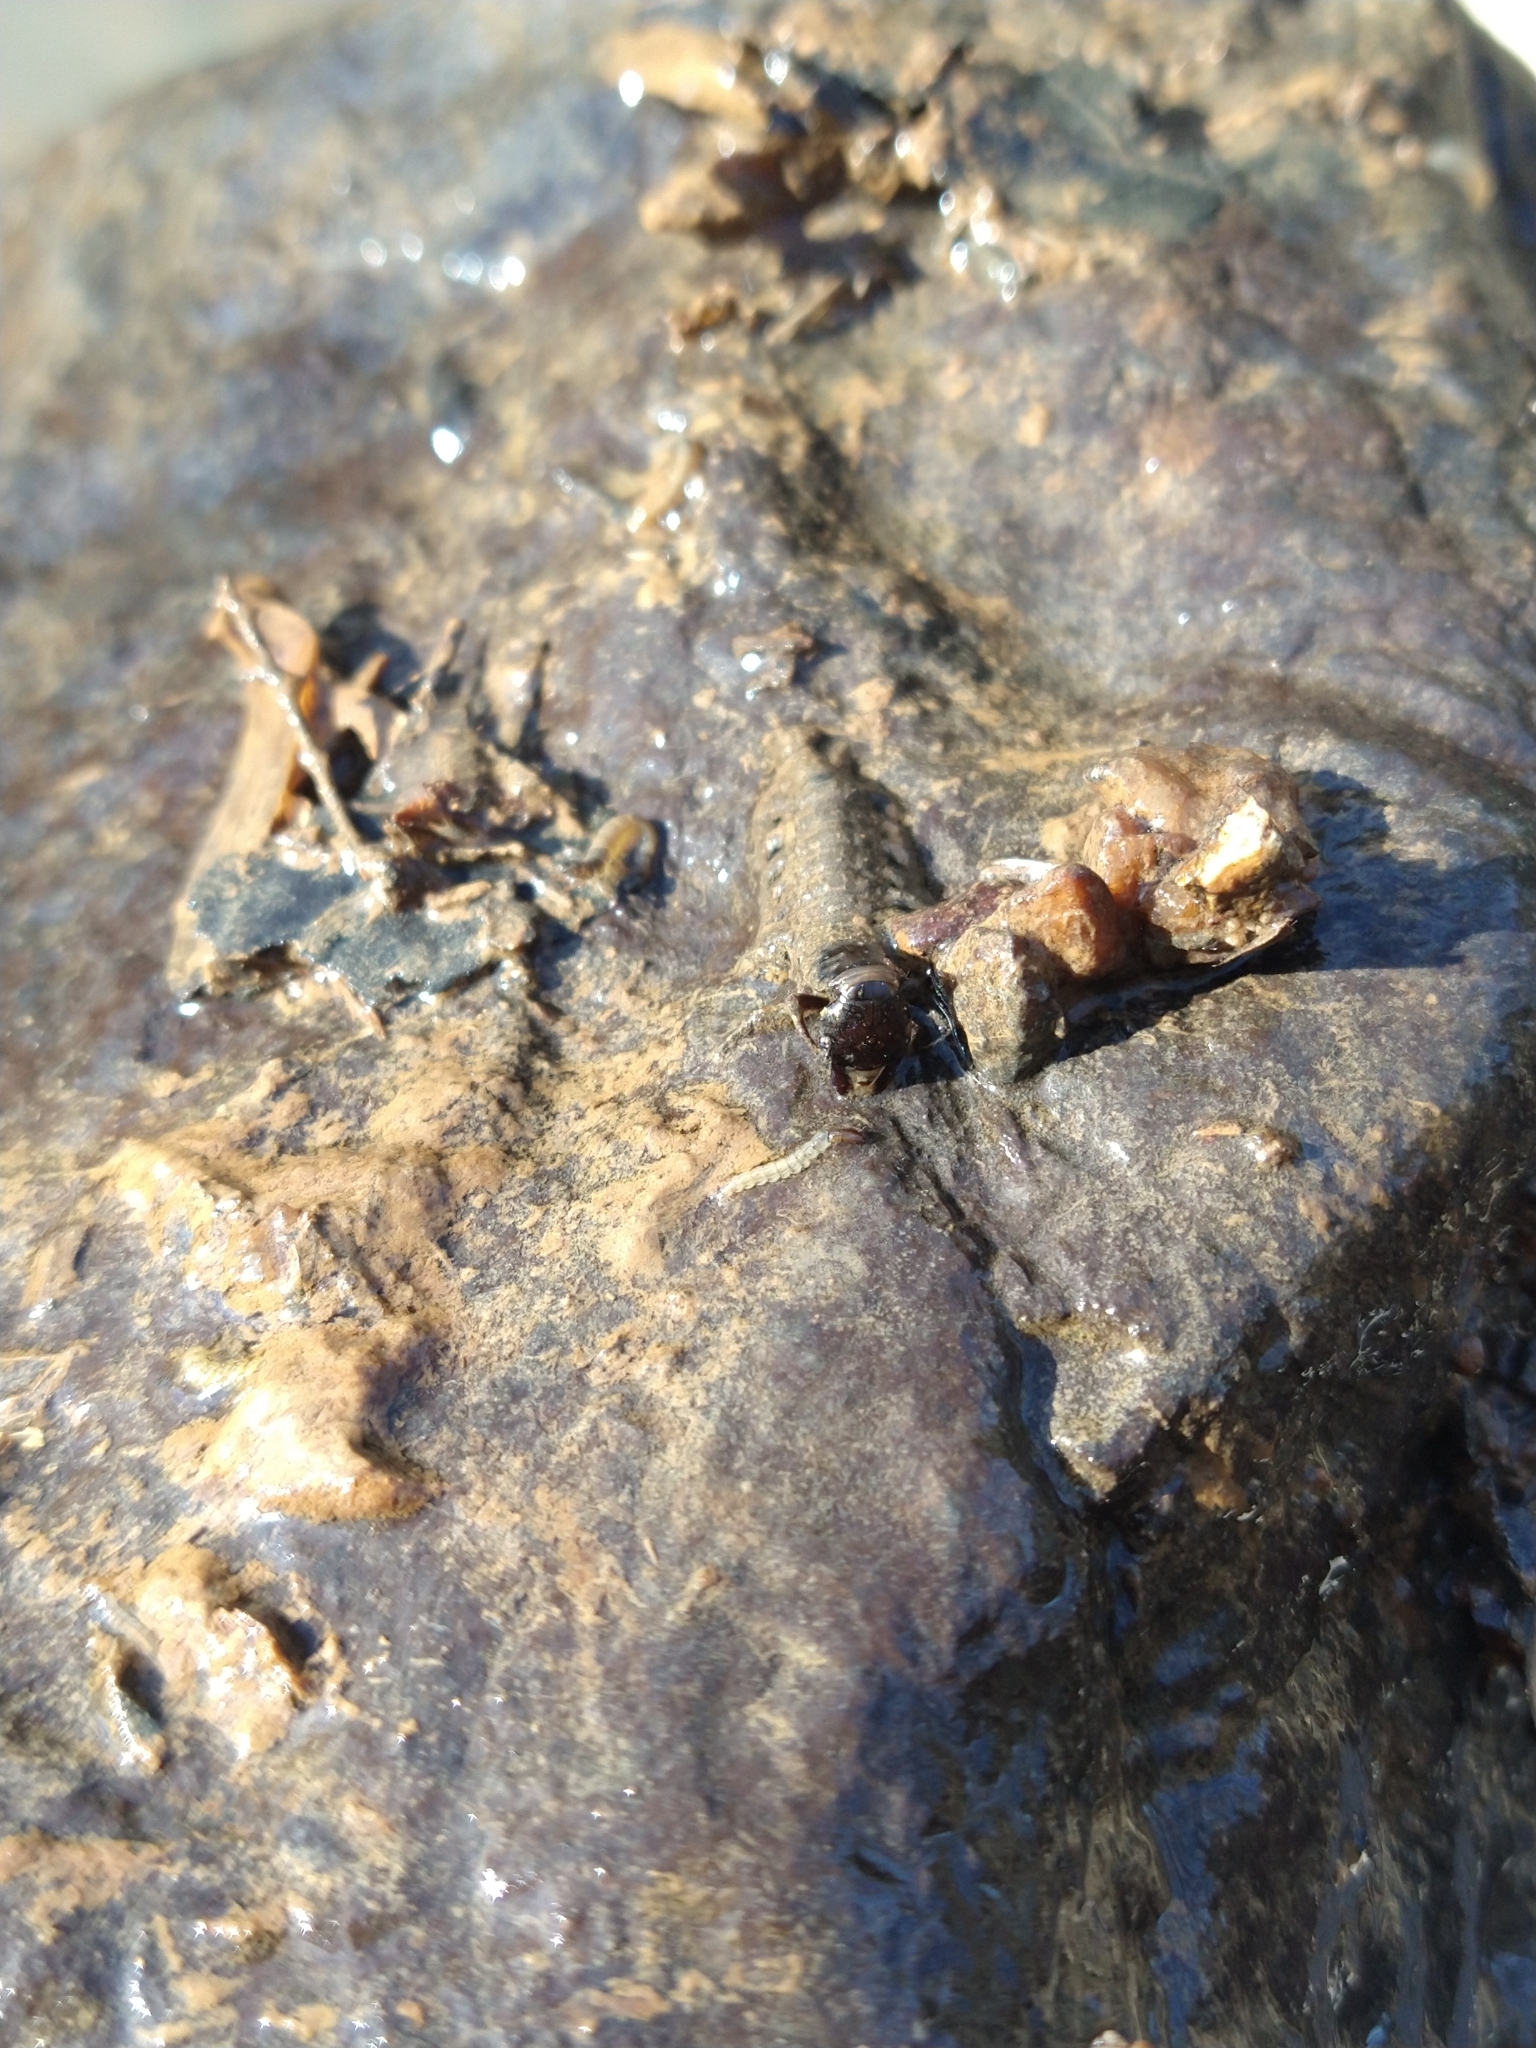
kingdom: Animalia
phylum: Arthropoda
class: Insecta
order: Megaloptera
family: Corydalidae
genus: Corydalus
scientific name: Corydalus cornutus
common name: Dobsonfly
